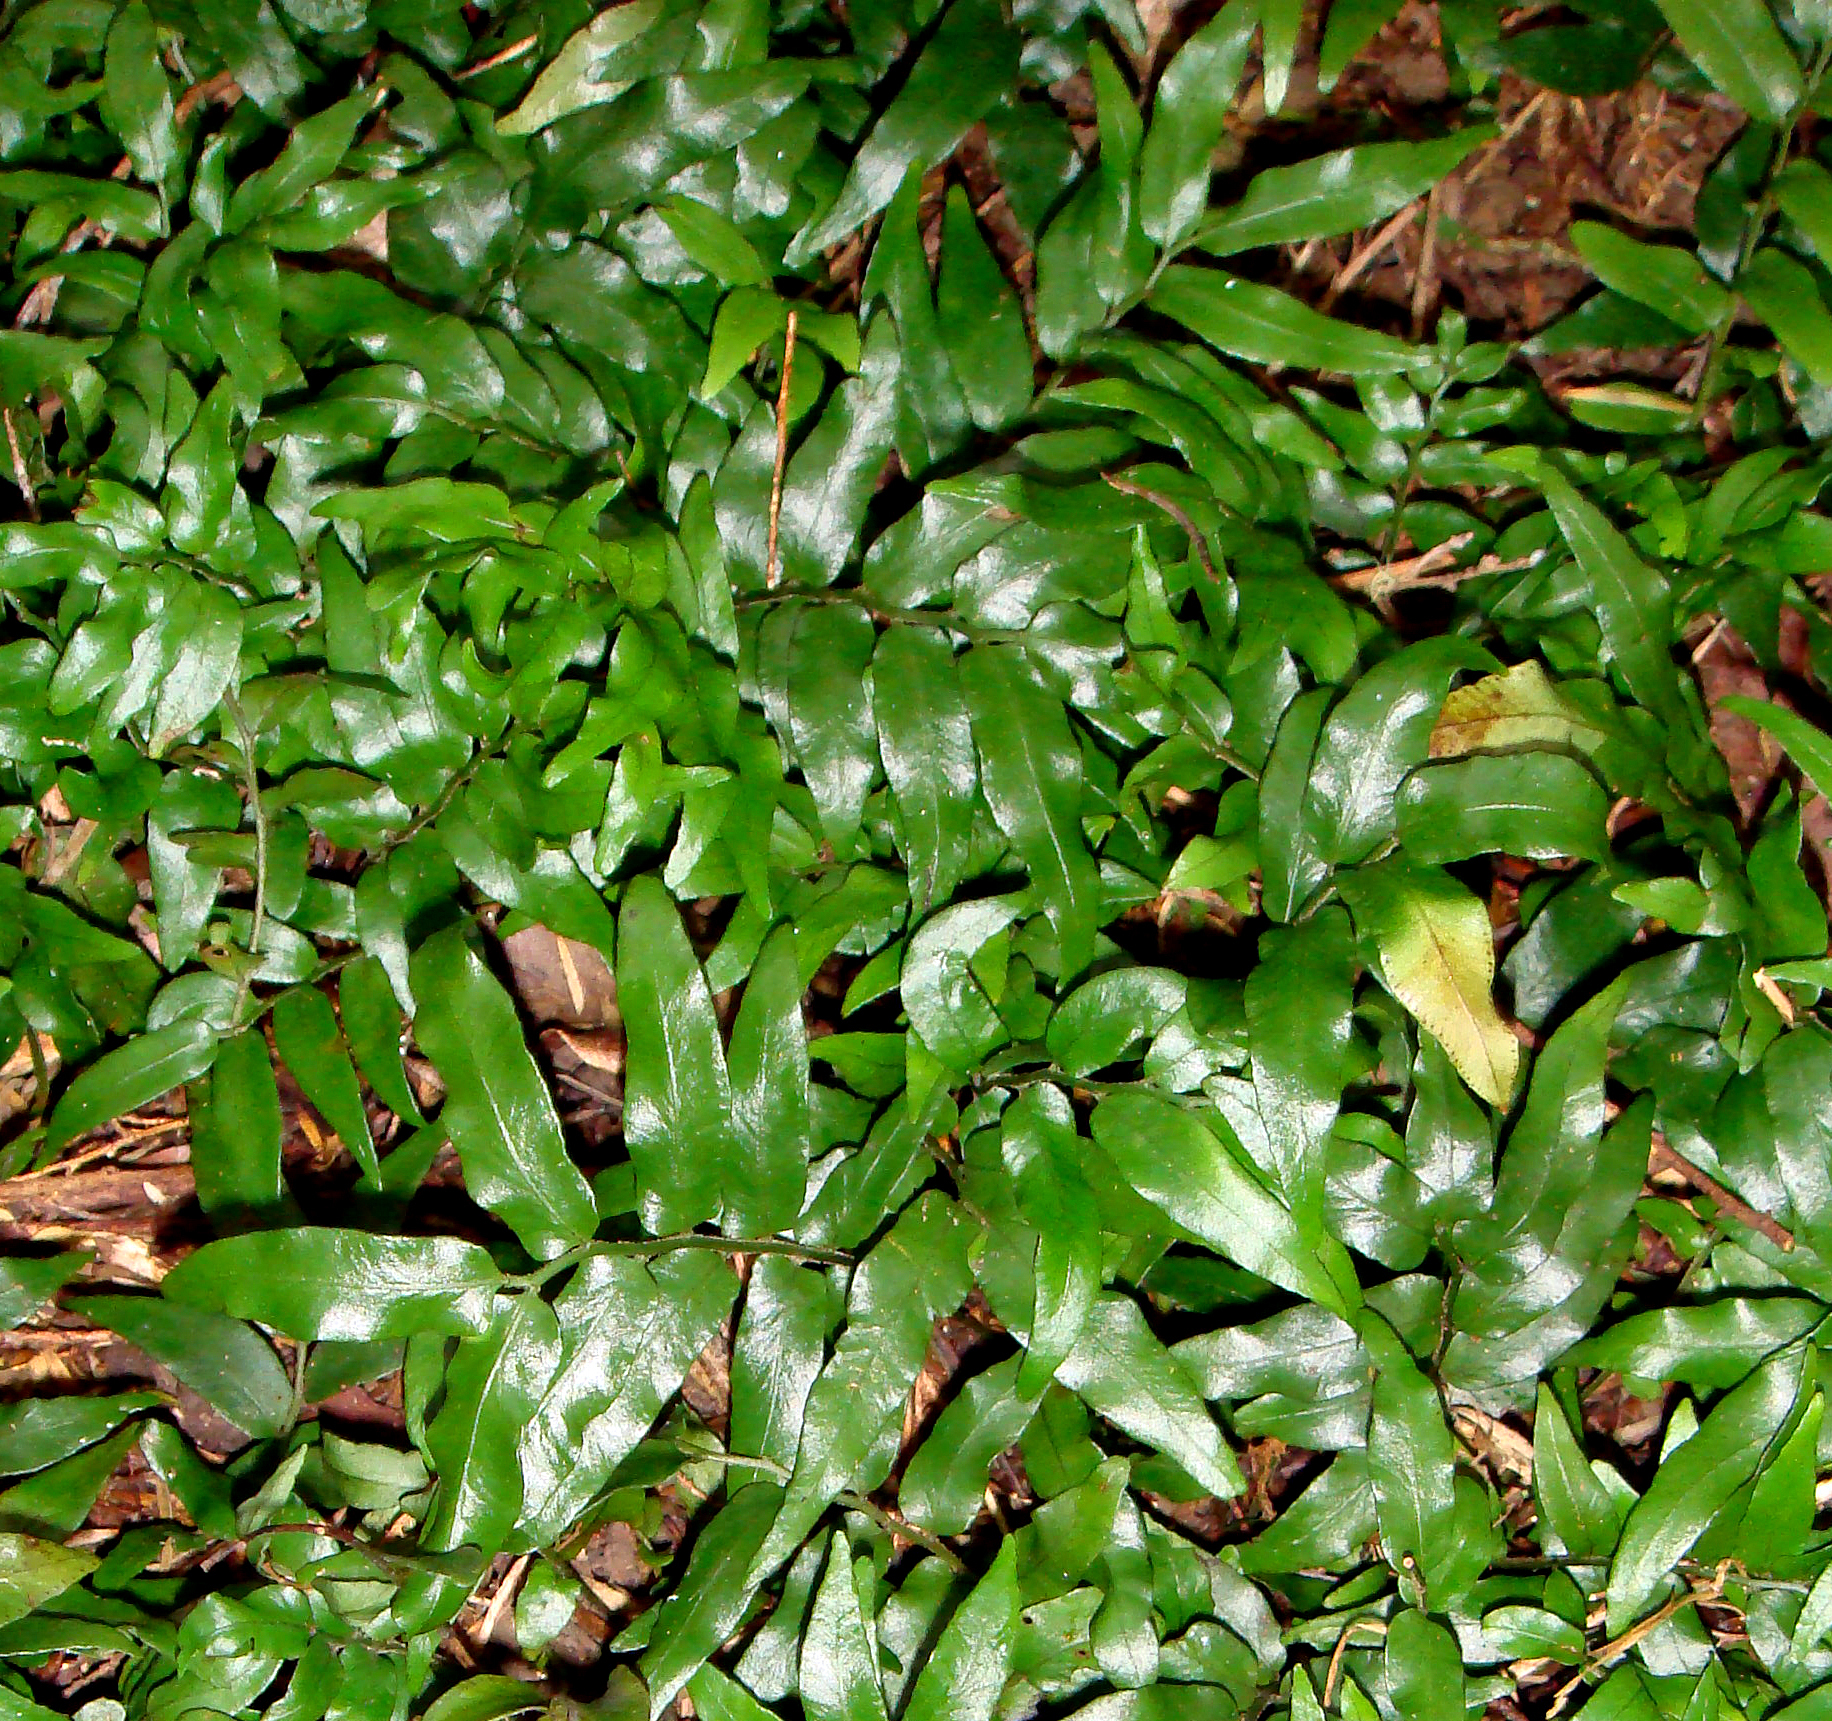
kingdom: Plantae
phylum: Tracheophyta
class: Polypodiopsida
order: Polypodiales
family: Tectariaceae
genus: Arthropteris
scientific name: Arthropteris tenella
